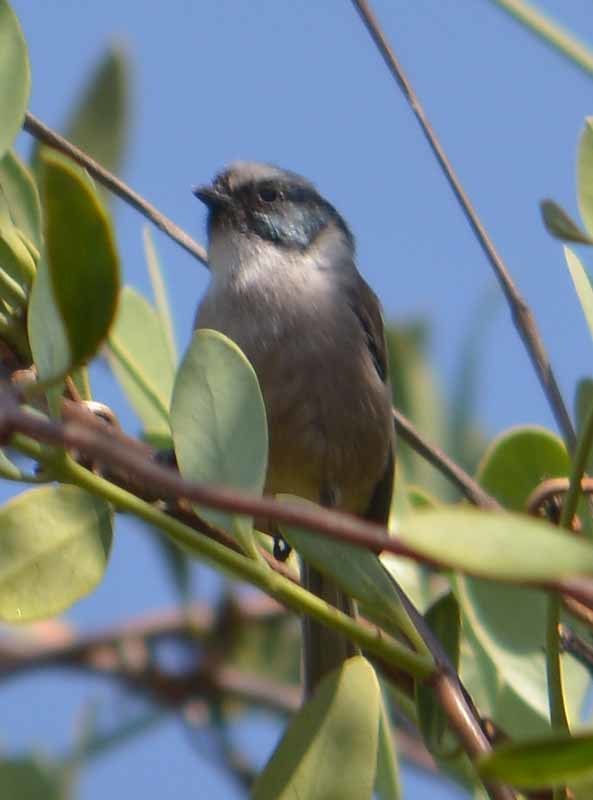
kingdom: Animalia
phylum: Chordata
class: Aves
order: Passeriformes
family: Aegithalidae
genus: Psaltriparus
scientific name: Psaltriparus minimus
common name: American bushtit
